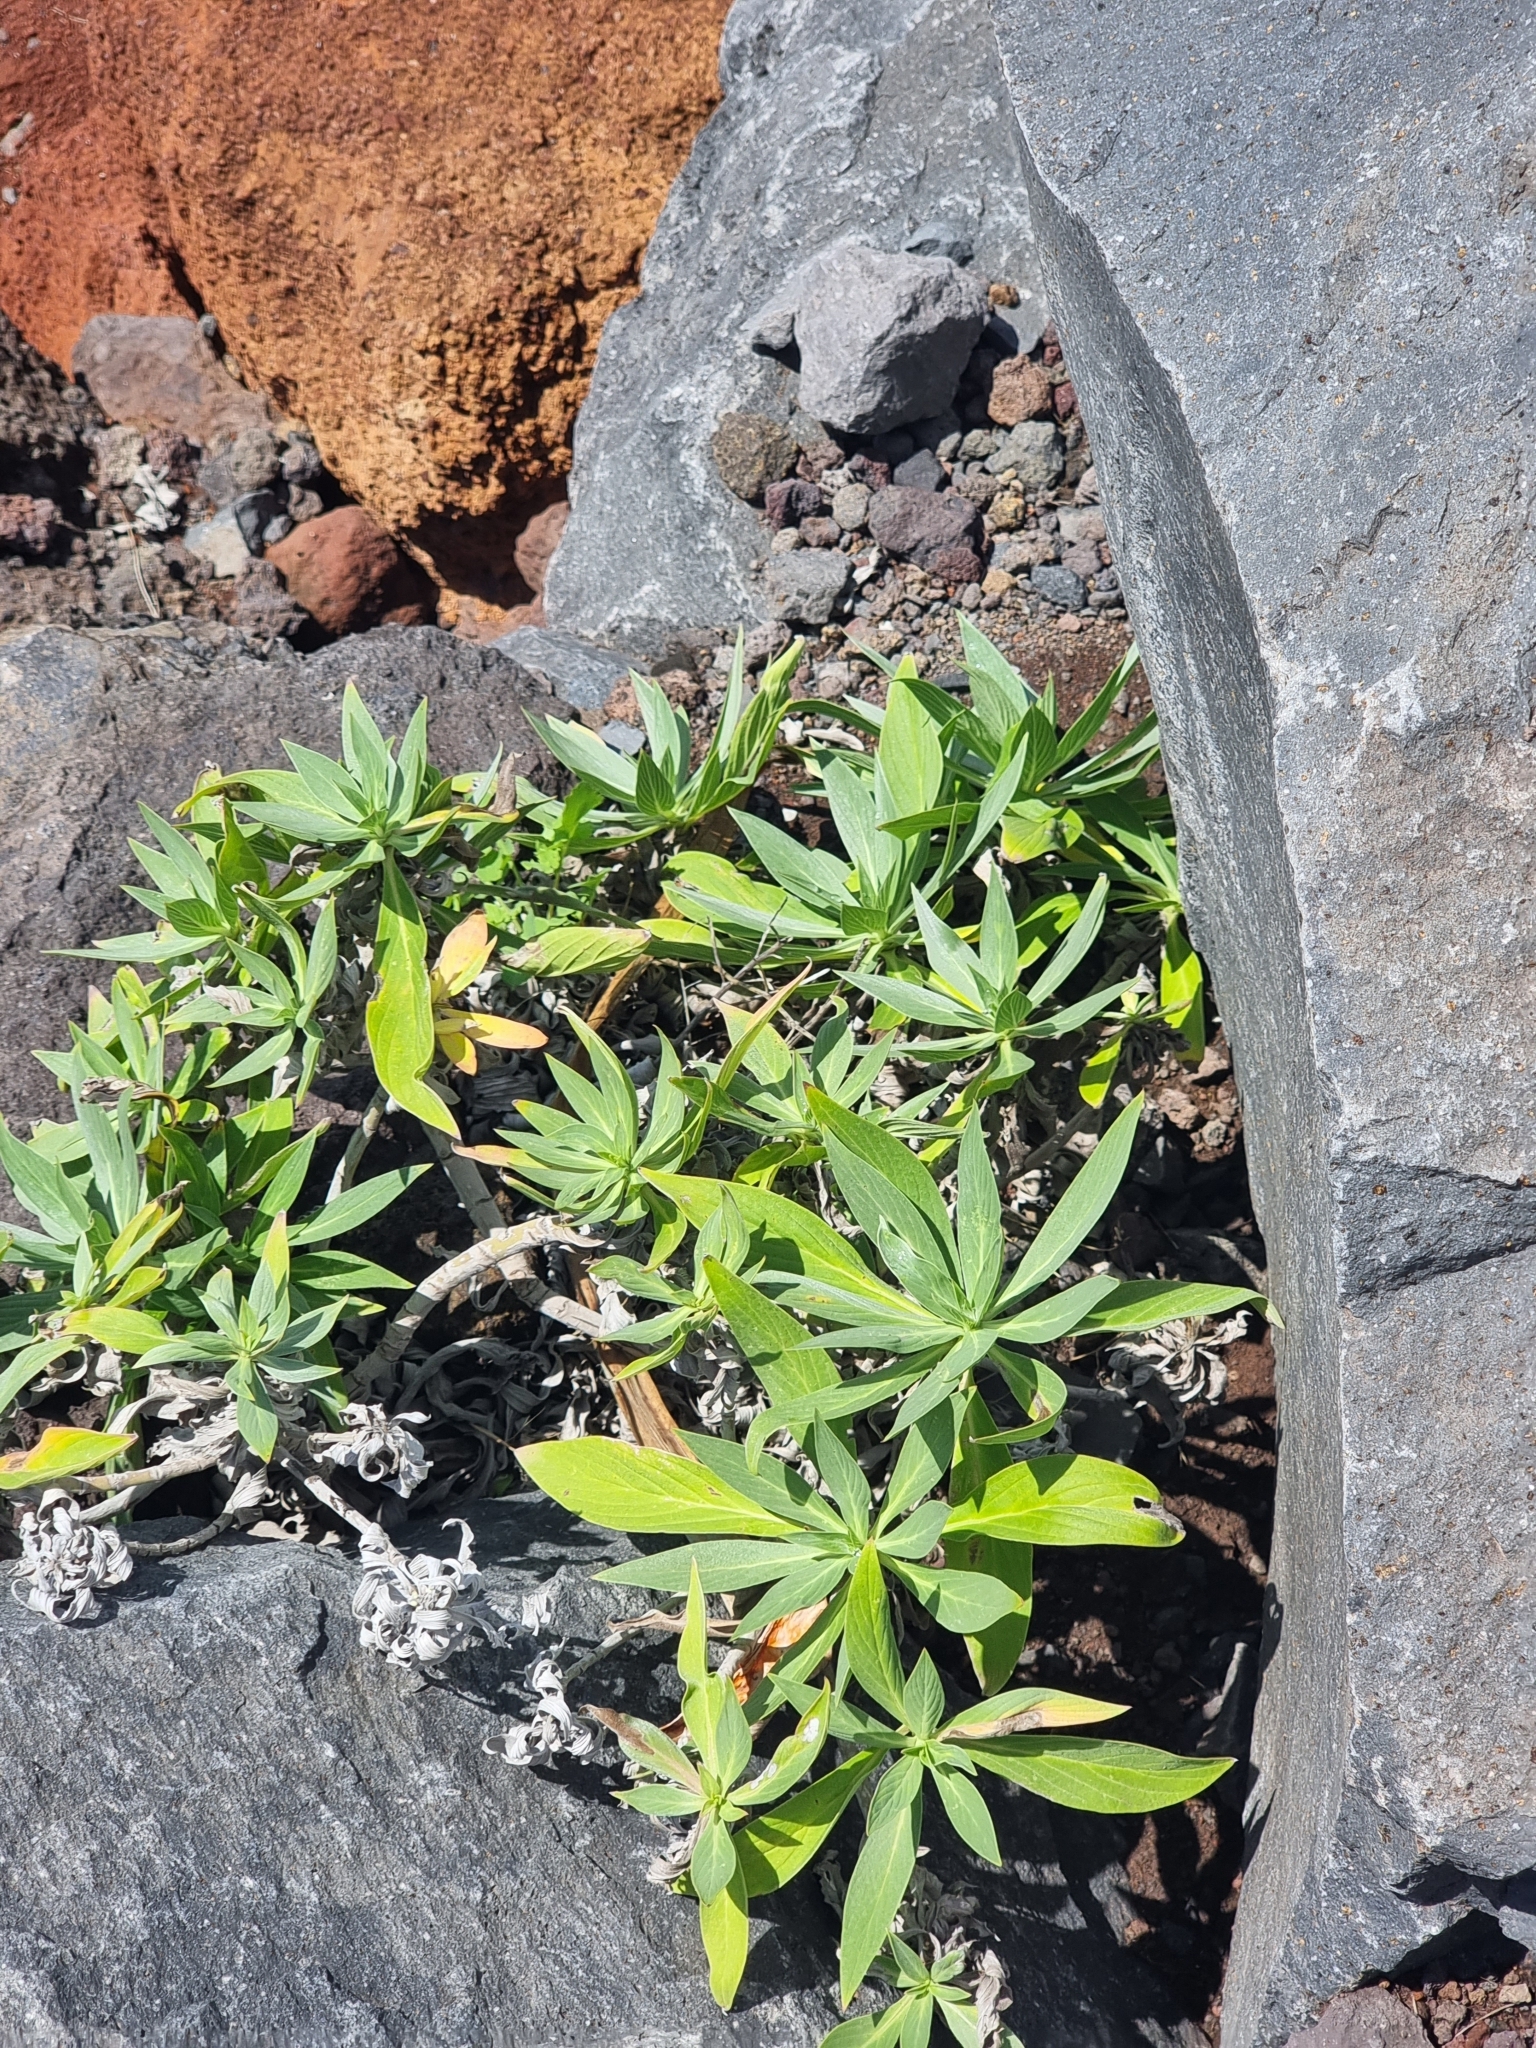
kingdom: Plantae
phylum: Tracheophyta
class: Magnoliopsida
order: Boraginales
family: Boraginaceae
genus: Echium
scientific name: Echium nervosum
